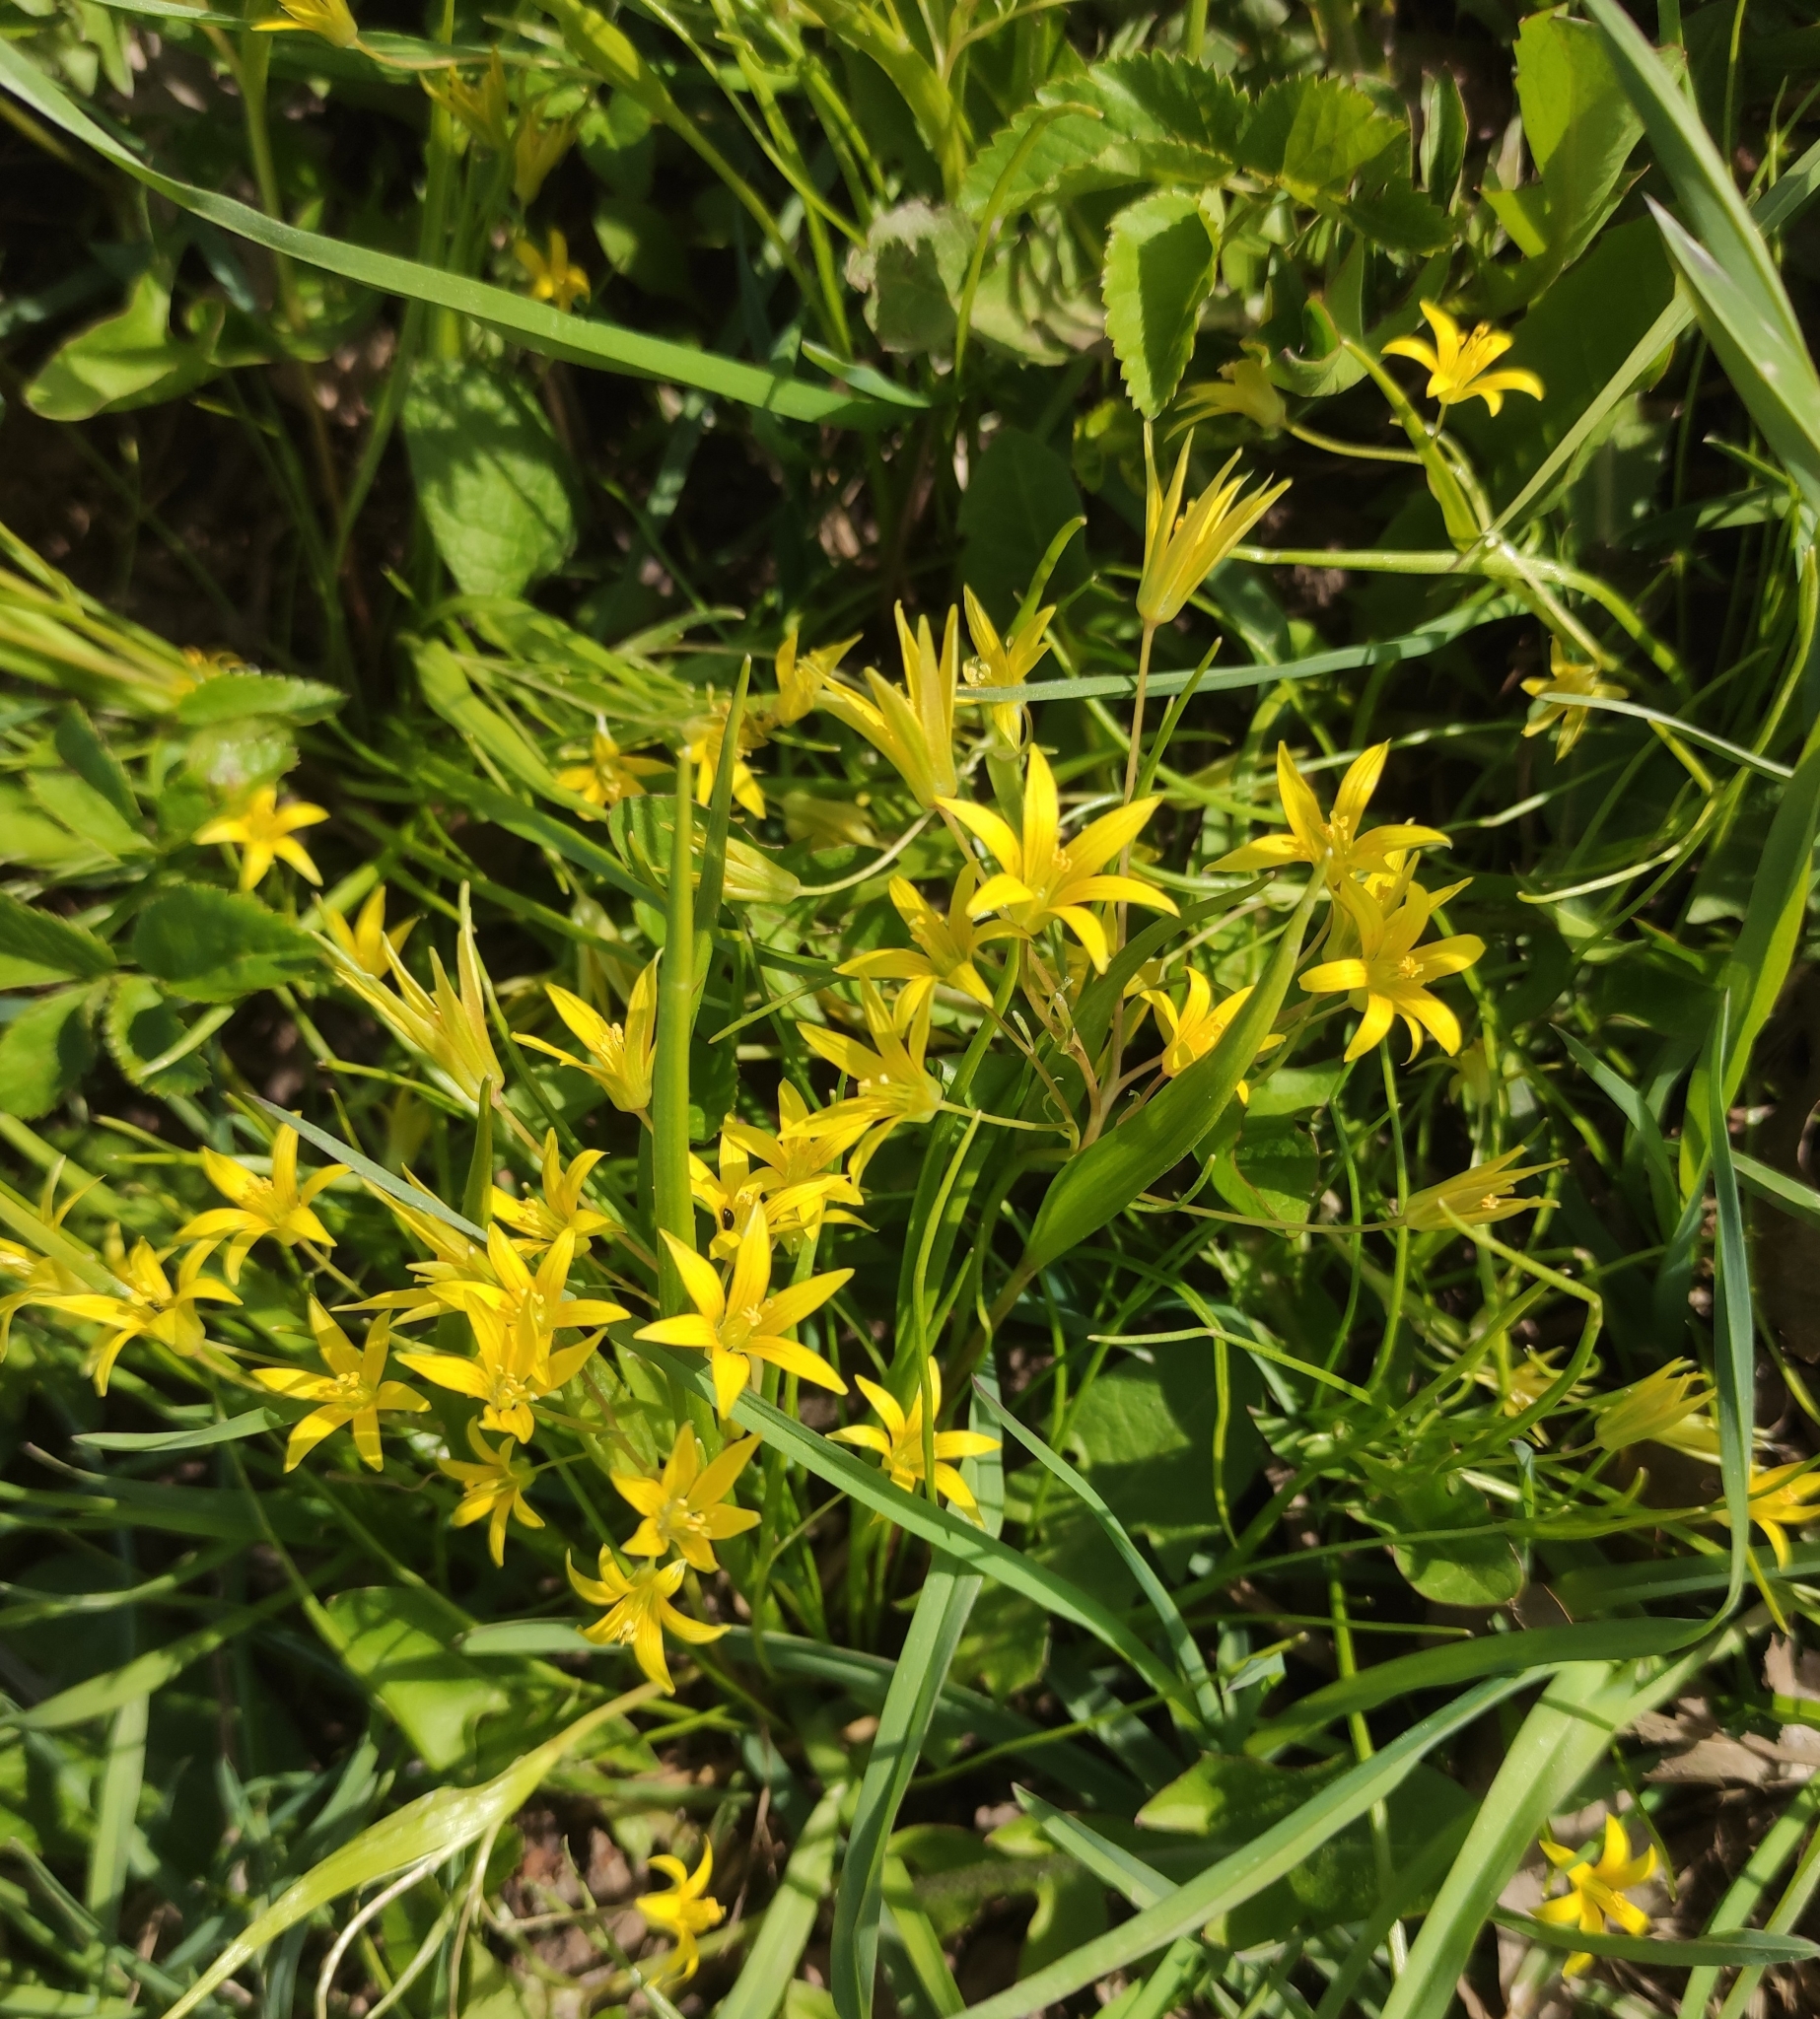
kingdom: Plantae
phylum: Tracheophyta
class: Liliopsida
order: Liliales
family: Liliaceae
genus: Gagea
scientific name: Gagea minima
